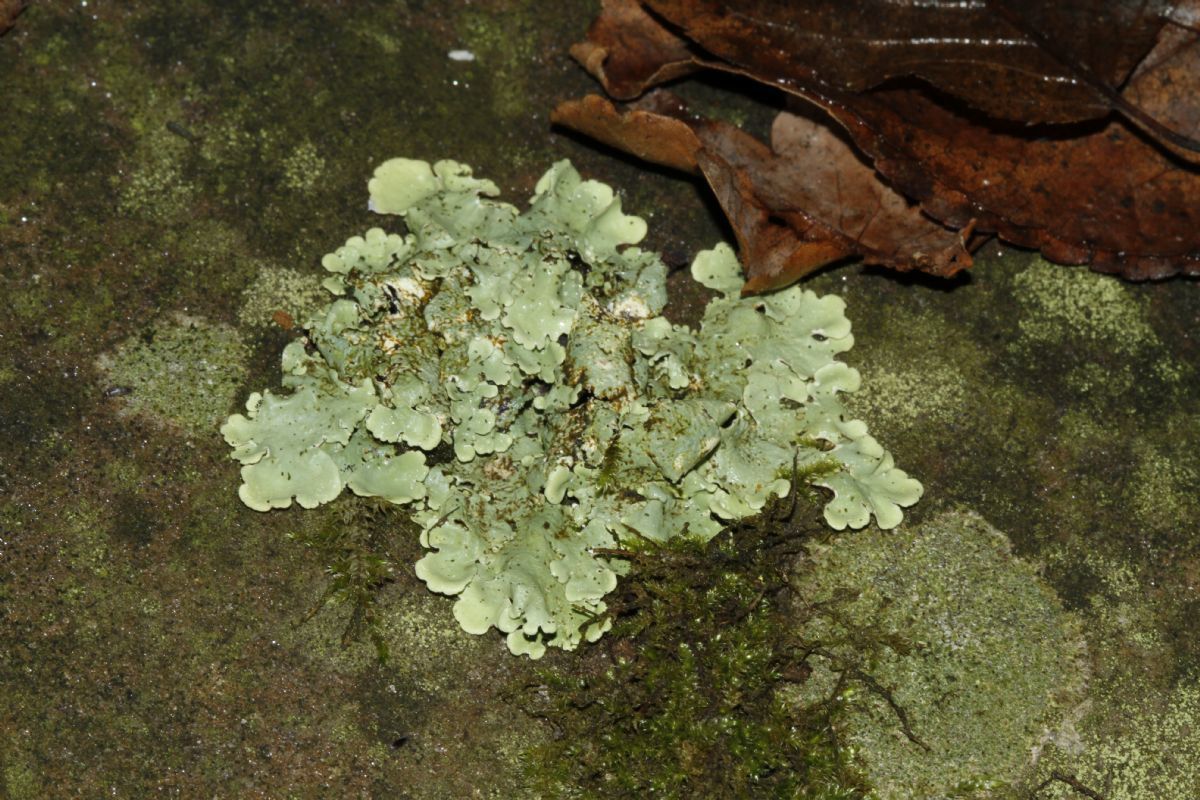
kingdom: Fungi
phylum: Ascomycota
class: Lecanoromycetes
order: Lecanorales
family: Parmeliaceae
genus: Flavoparmelia
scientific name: Flavoparmelia caperata
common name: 40-mile per hour lichen
